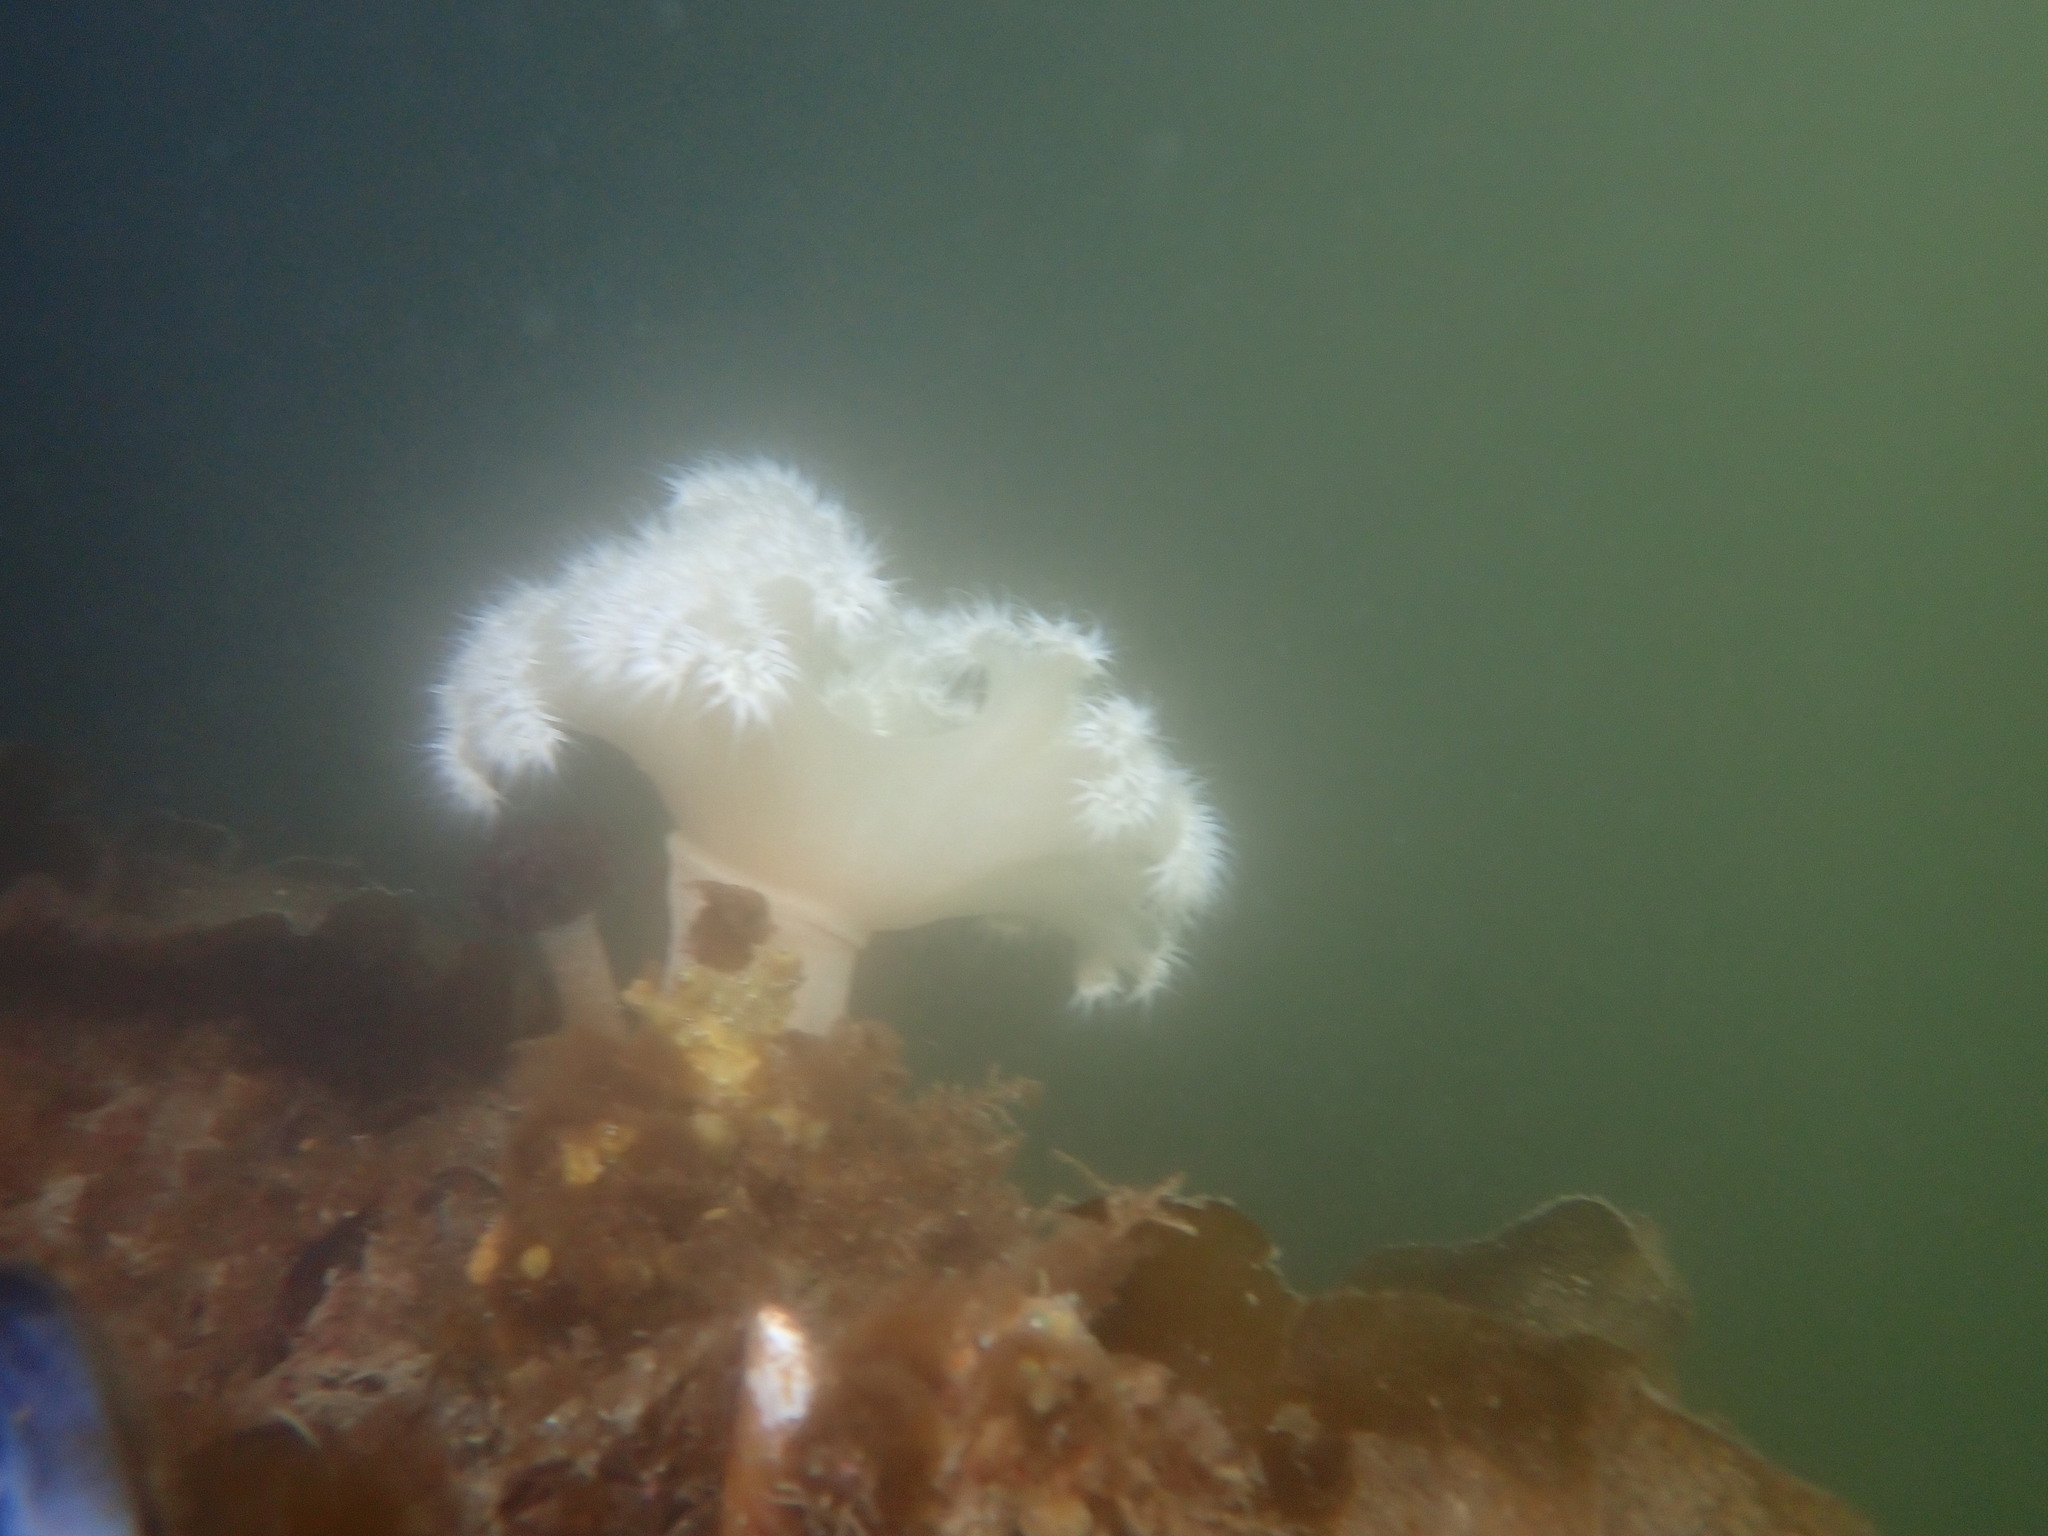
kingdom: Animalia
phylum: Cnidaria
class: Anthozoa
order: Actiniaria
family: Metridiidae
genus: Metridium
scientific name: Metridium senile
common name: Clonal plumose anemone
